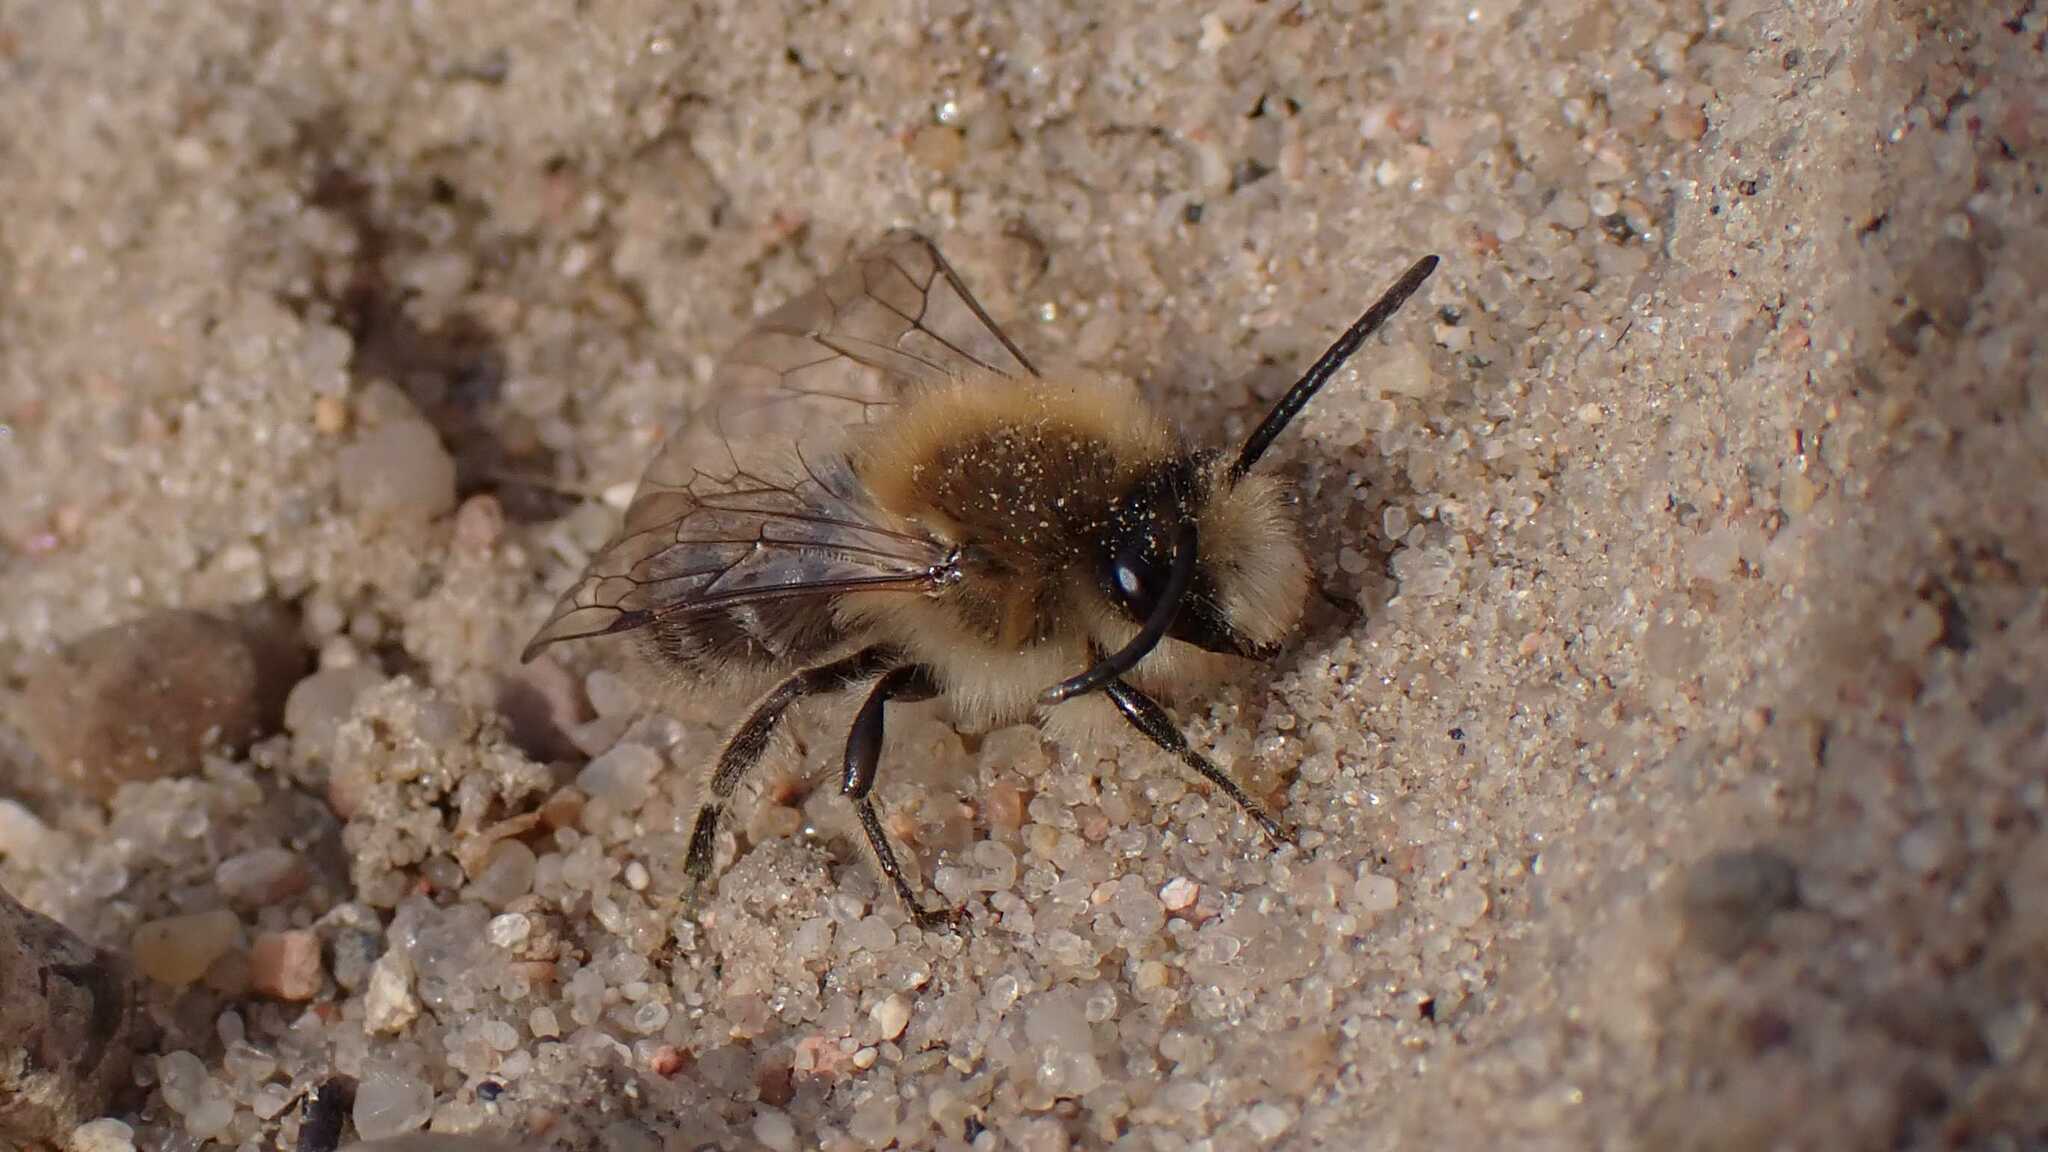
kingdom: Animalia
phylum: Arthropoda
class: Insecta
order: Hymenoptera
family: Colletidae
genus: Colletes
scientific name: Colletes cunicularius
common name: Early colletes
